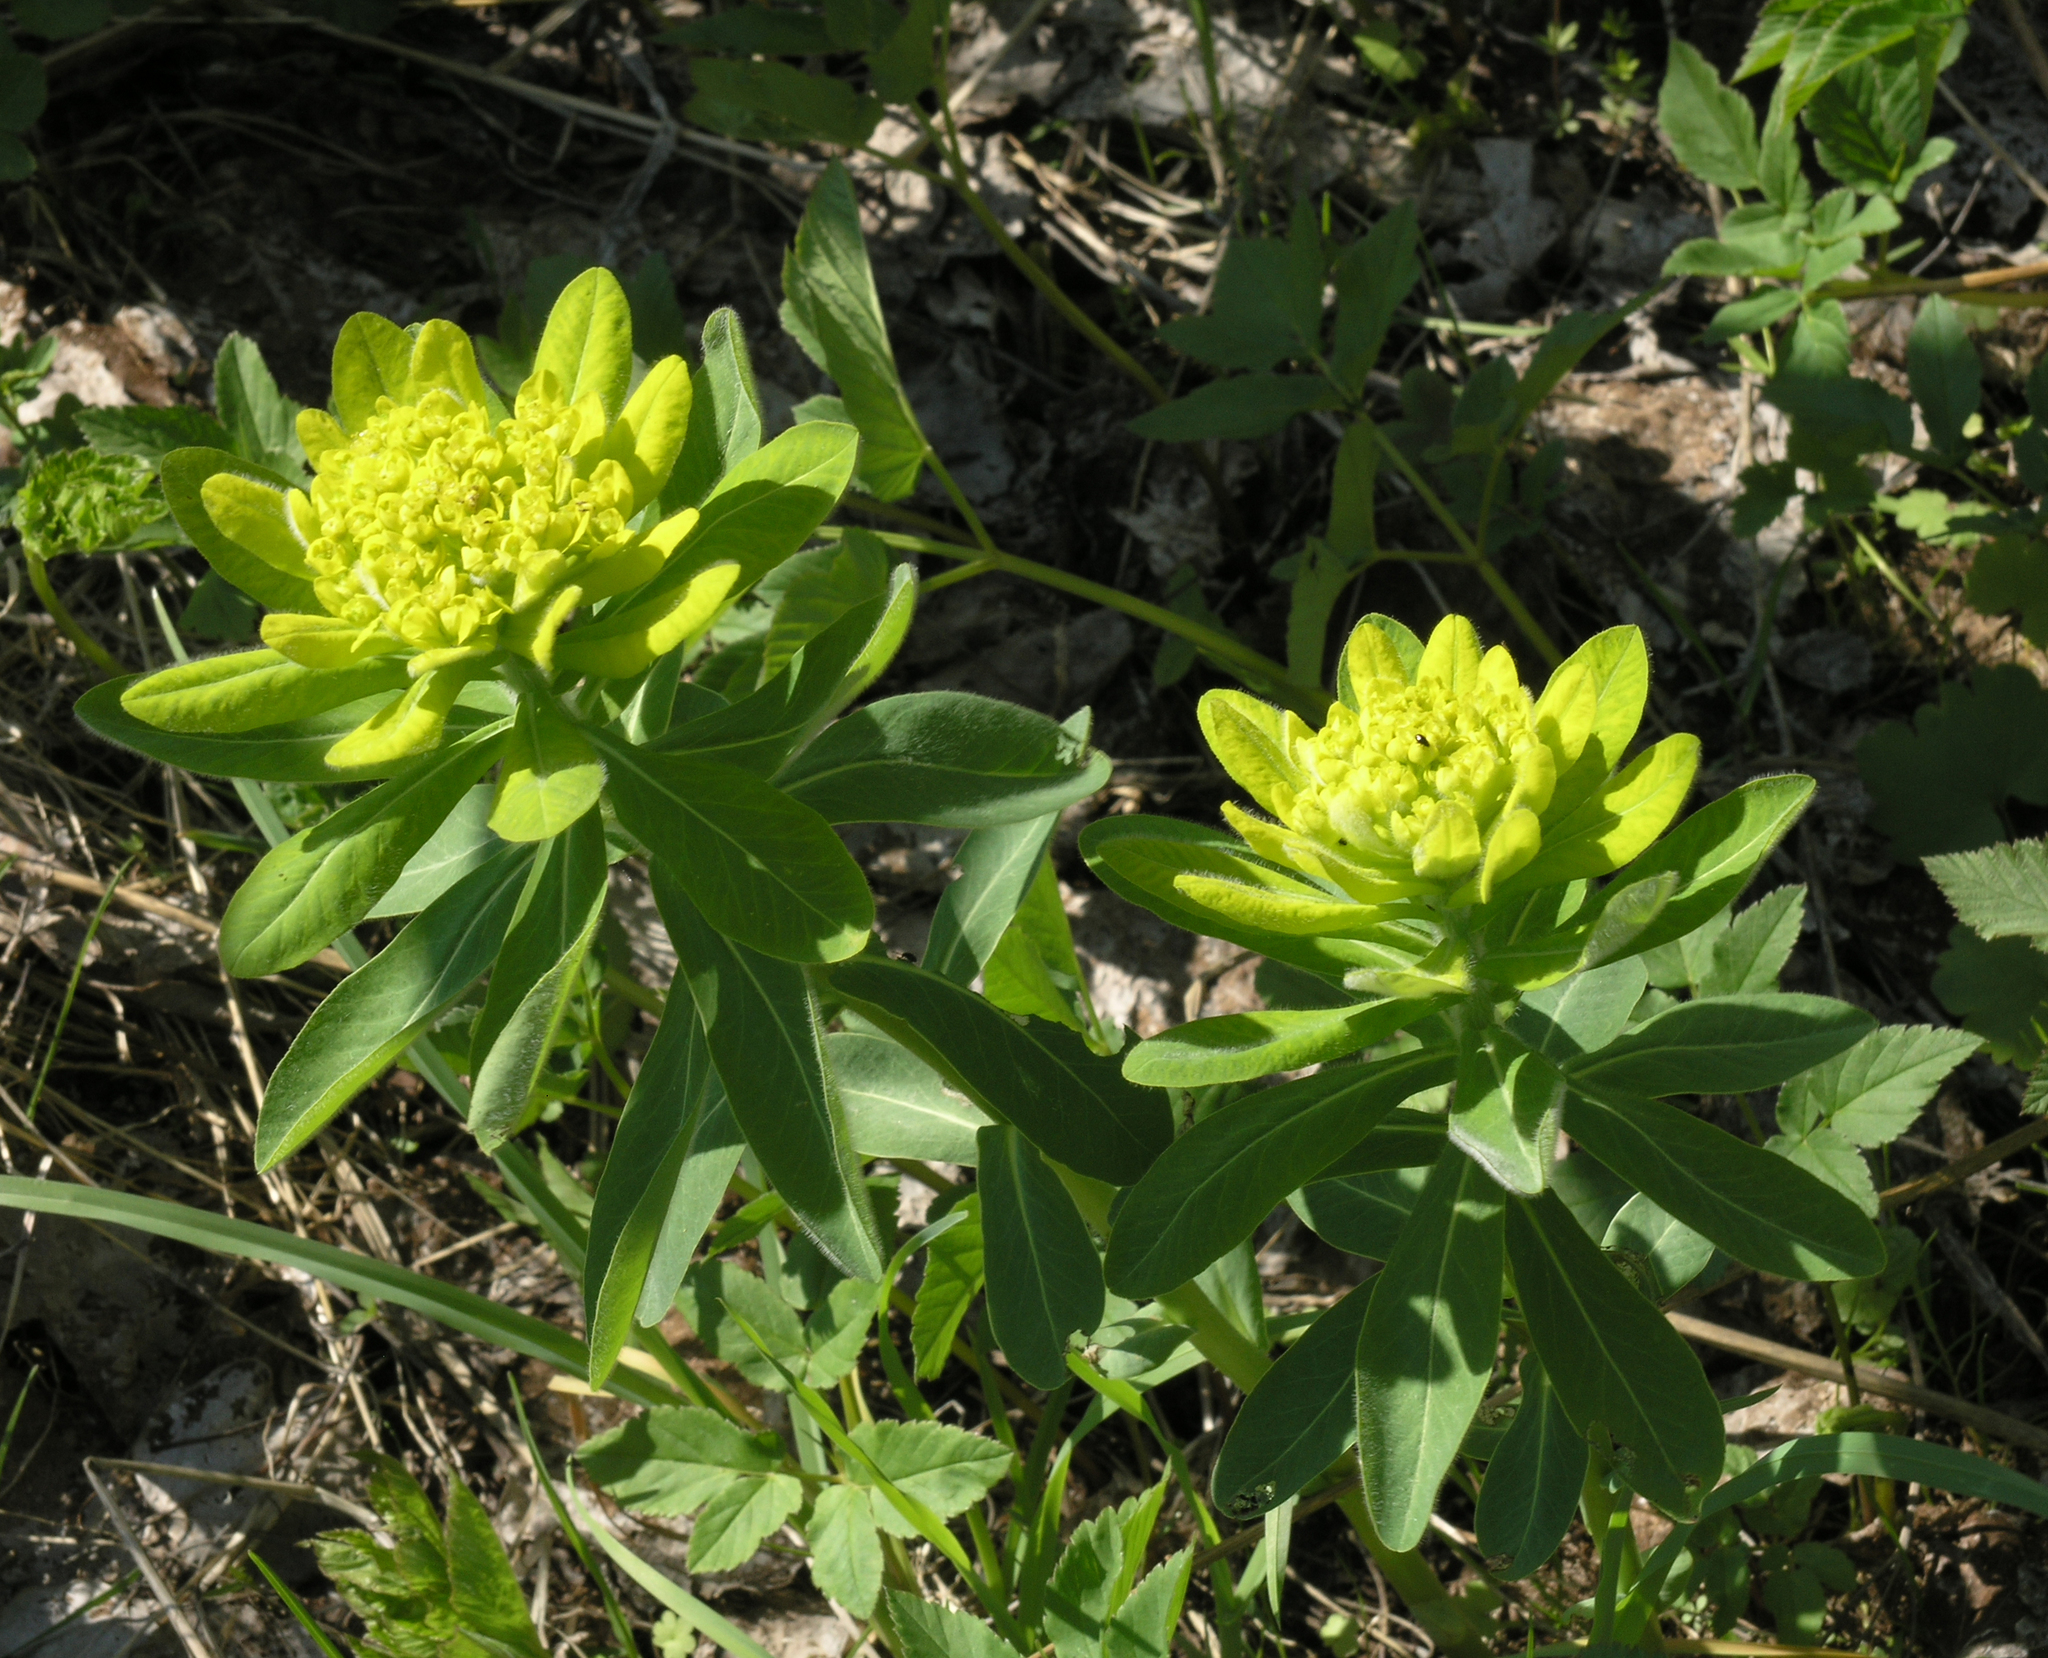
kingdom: Plantae
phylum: Tracheophyta
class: Magnoliopsida
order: Malpighiales
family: Euphorbiaceae
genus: Euphorbia
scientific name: Euphorbia pilosa
